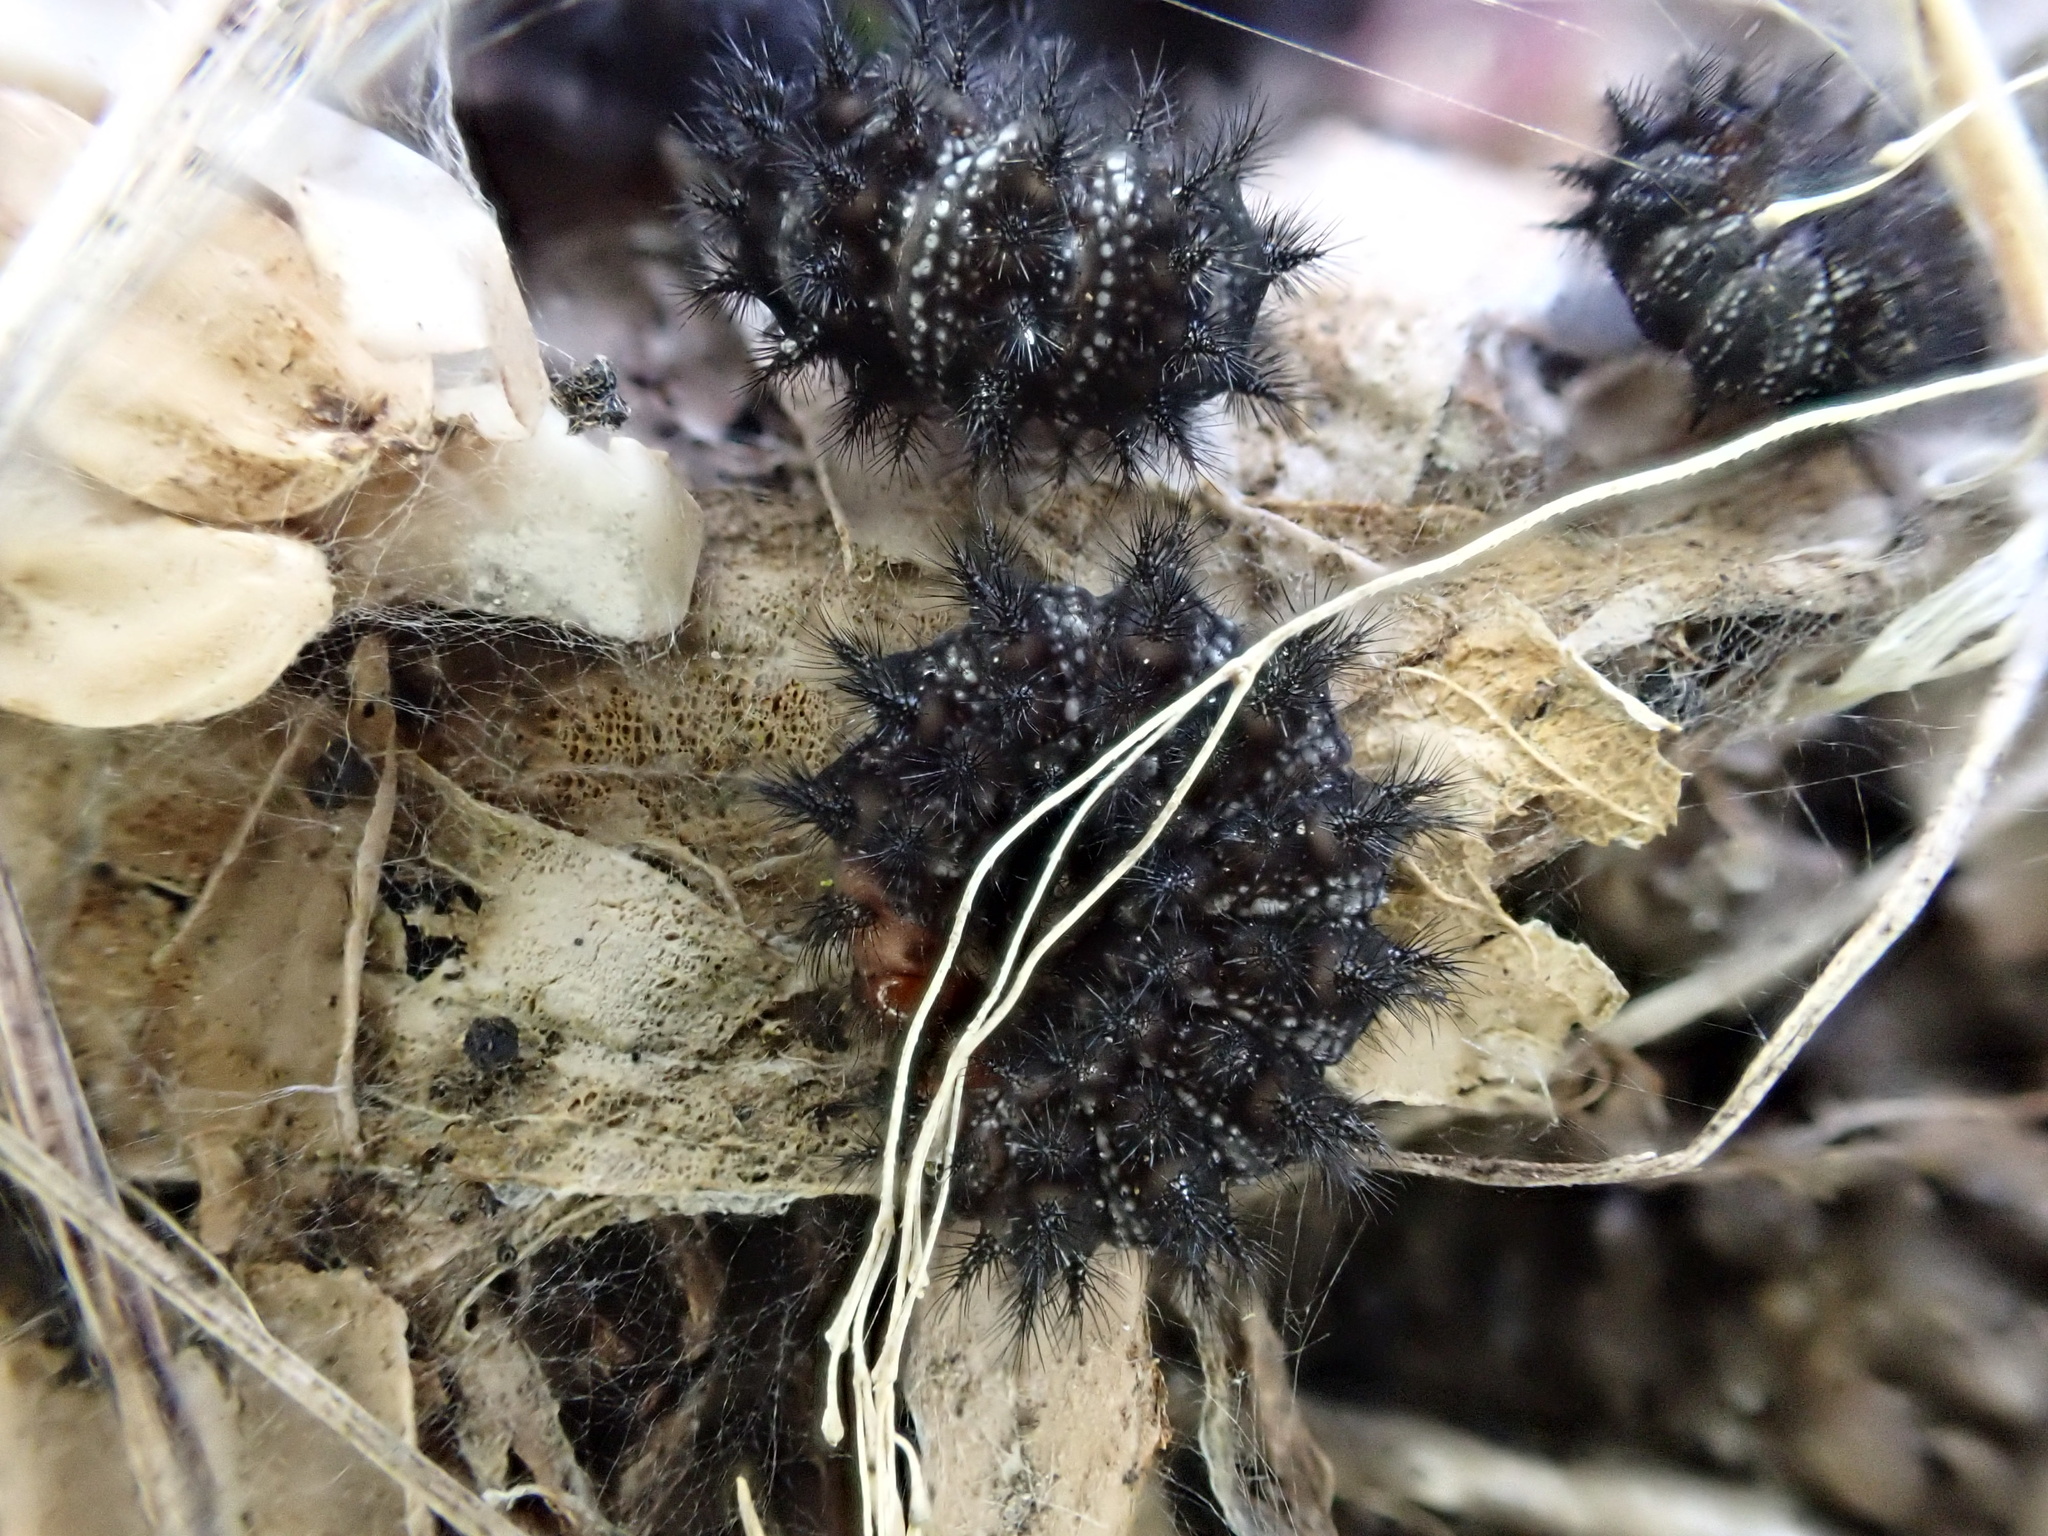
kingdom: Animalia
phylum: Arthropoda
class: Insecta
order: Lepidoptera
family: Nymphalidae
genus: Melitaea
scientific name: Melitaea cinxia
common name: Glanville fritillary
